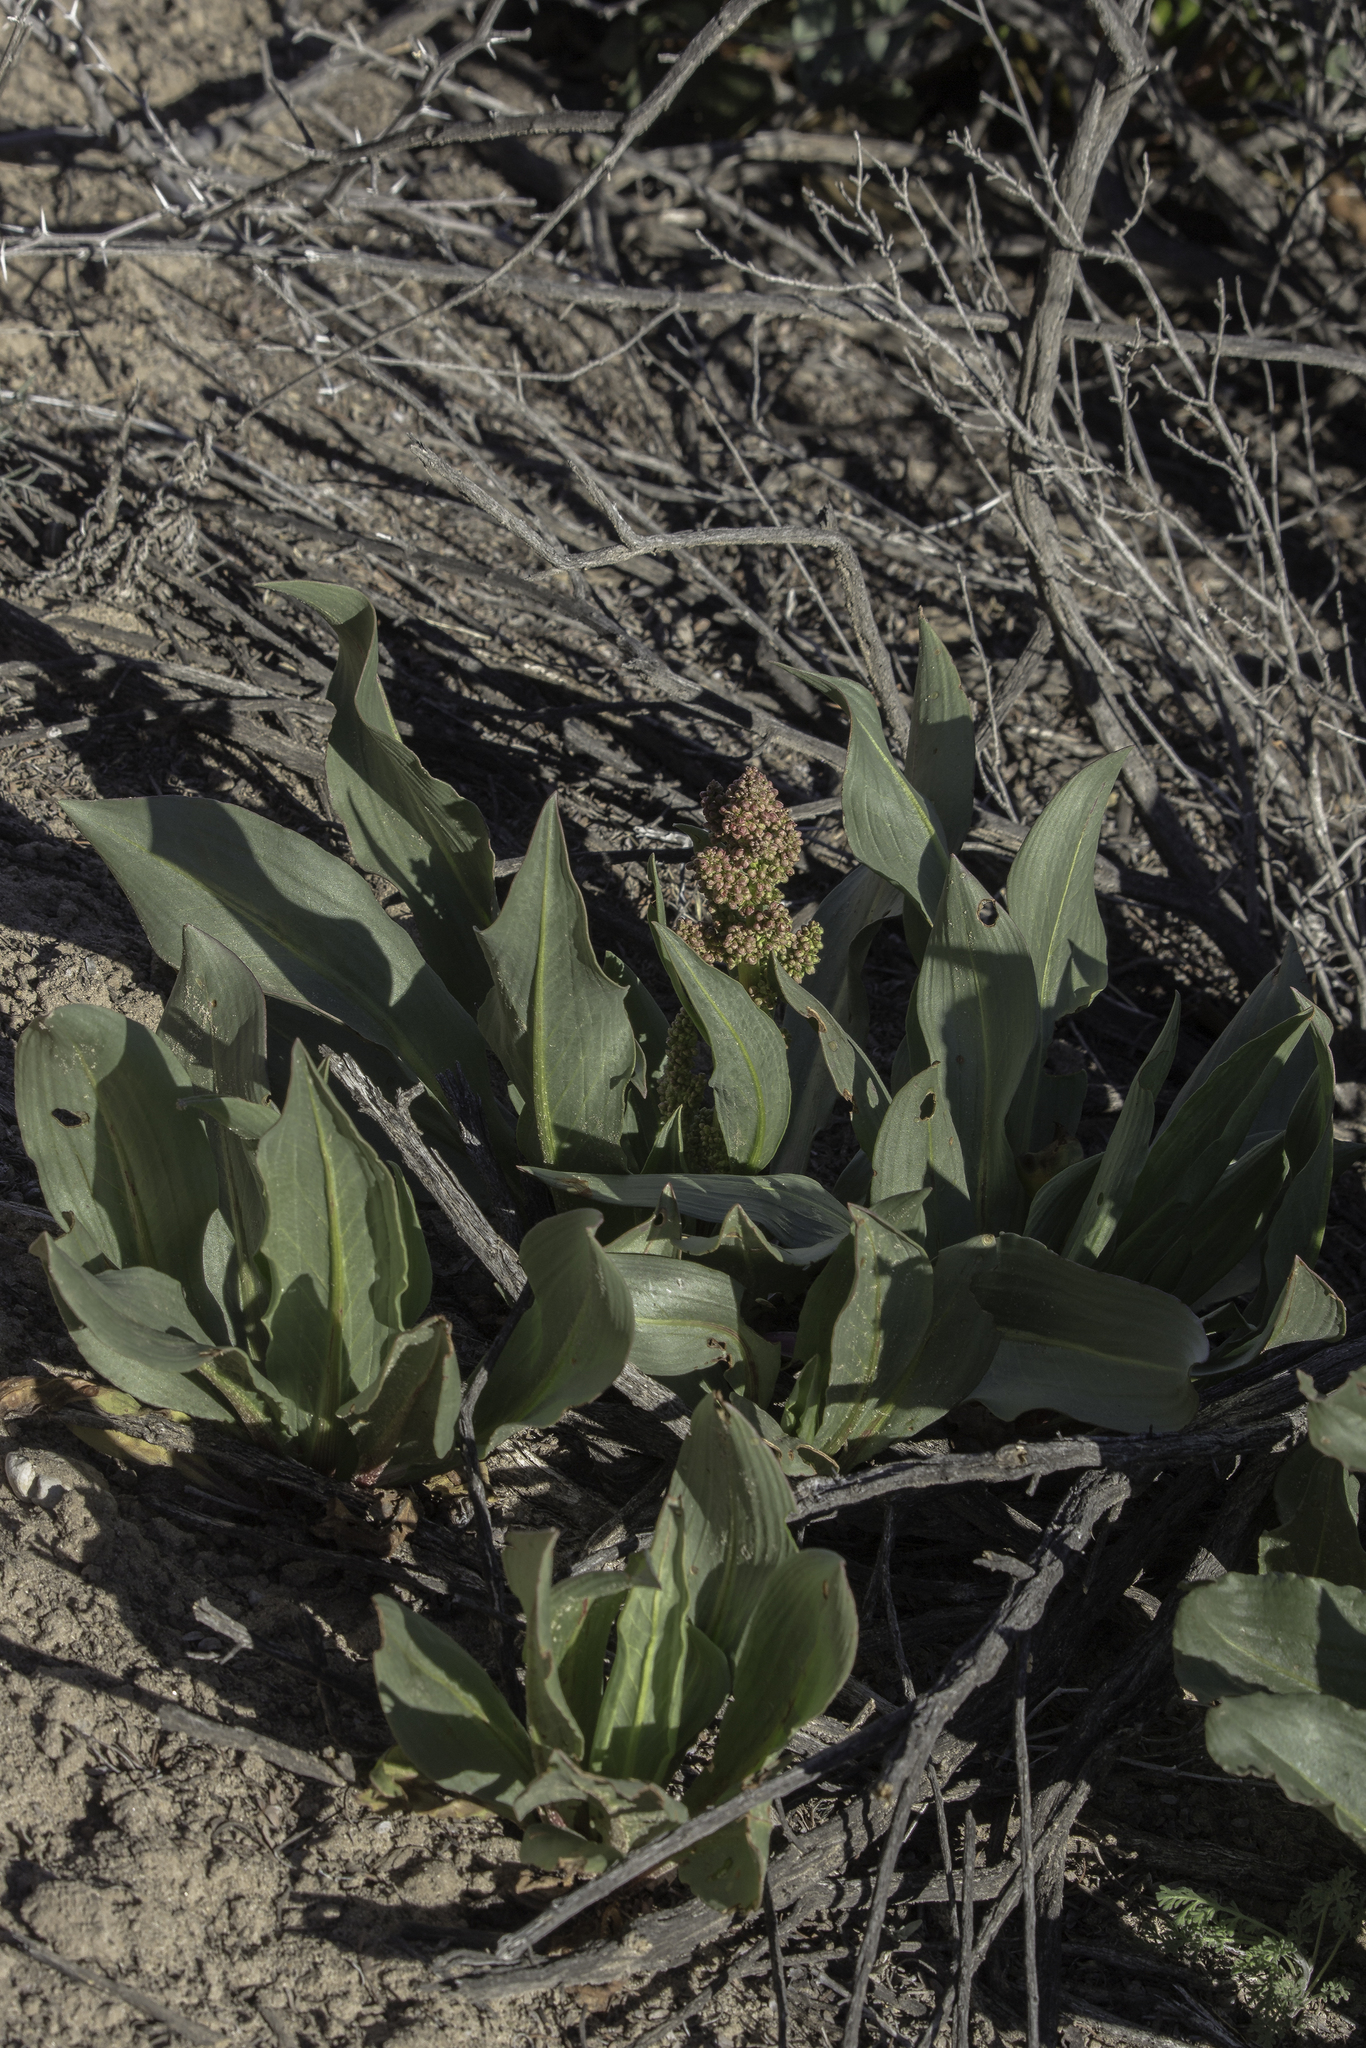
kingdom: Plantae
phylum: Tracheophyta
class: Magnoliopsida
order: Caryophyllales
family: Polygonaceae
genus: Rumex
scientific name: Rumex hymenosepalus
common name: Ganagra
